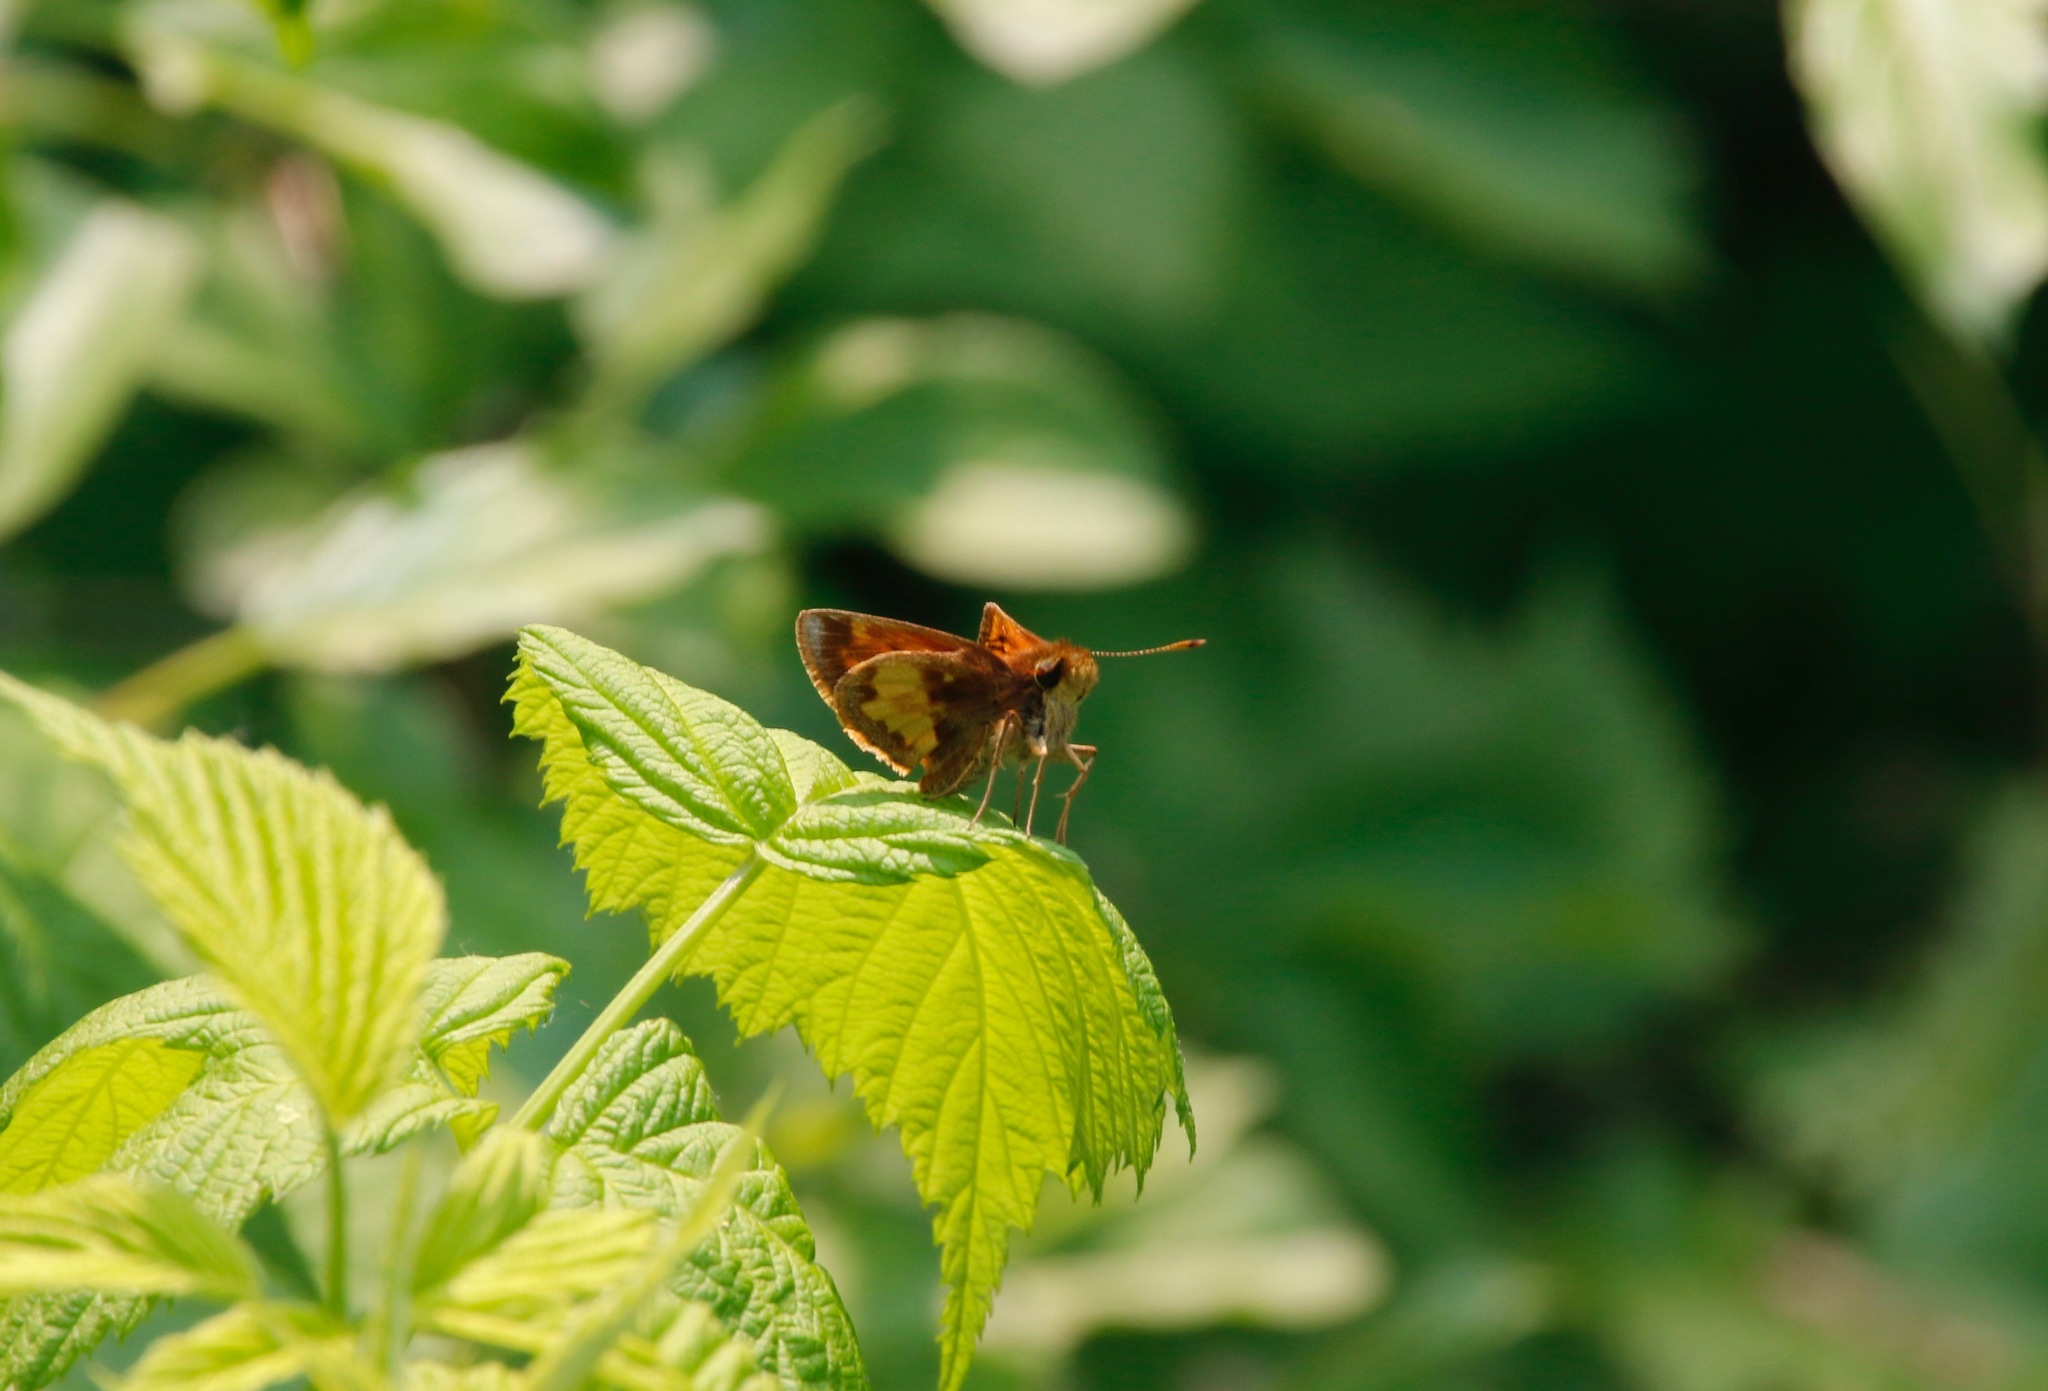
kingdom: Animalia
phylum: Arthropoda
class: Insecta
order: Lepidoptera
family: Hesperiidae
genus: Lon
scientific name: Lon hobomok
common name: Hobomok skipper
